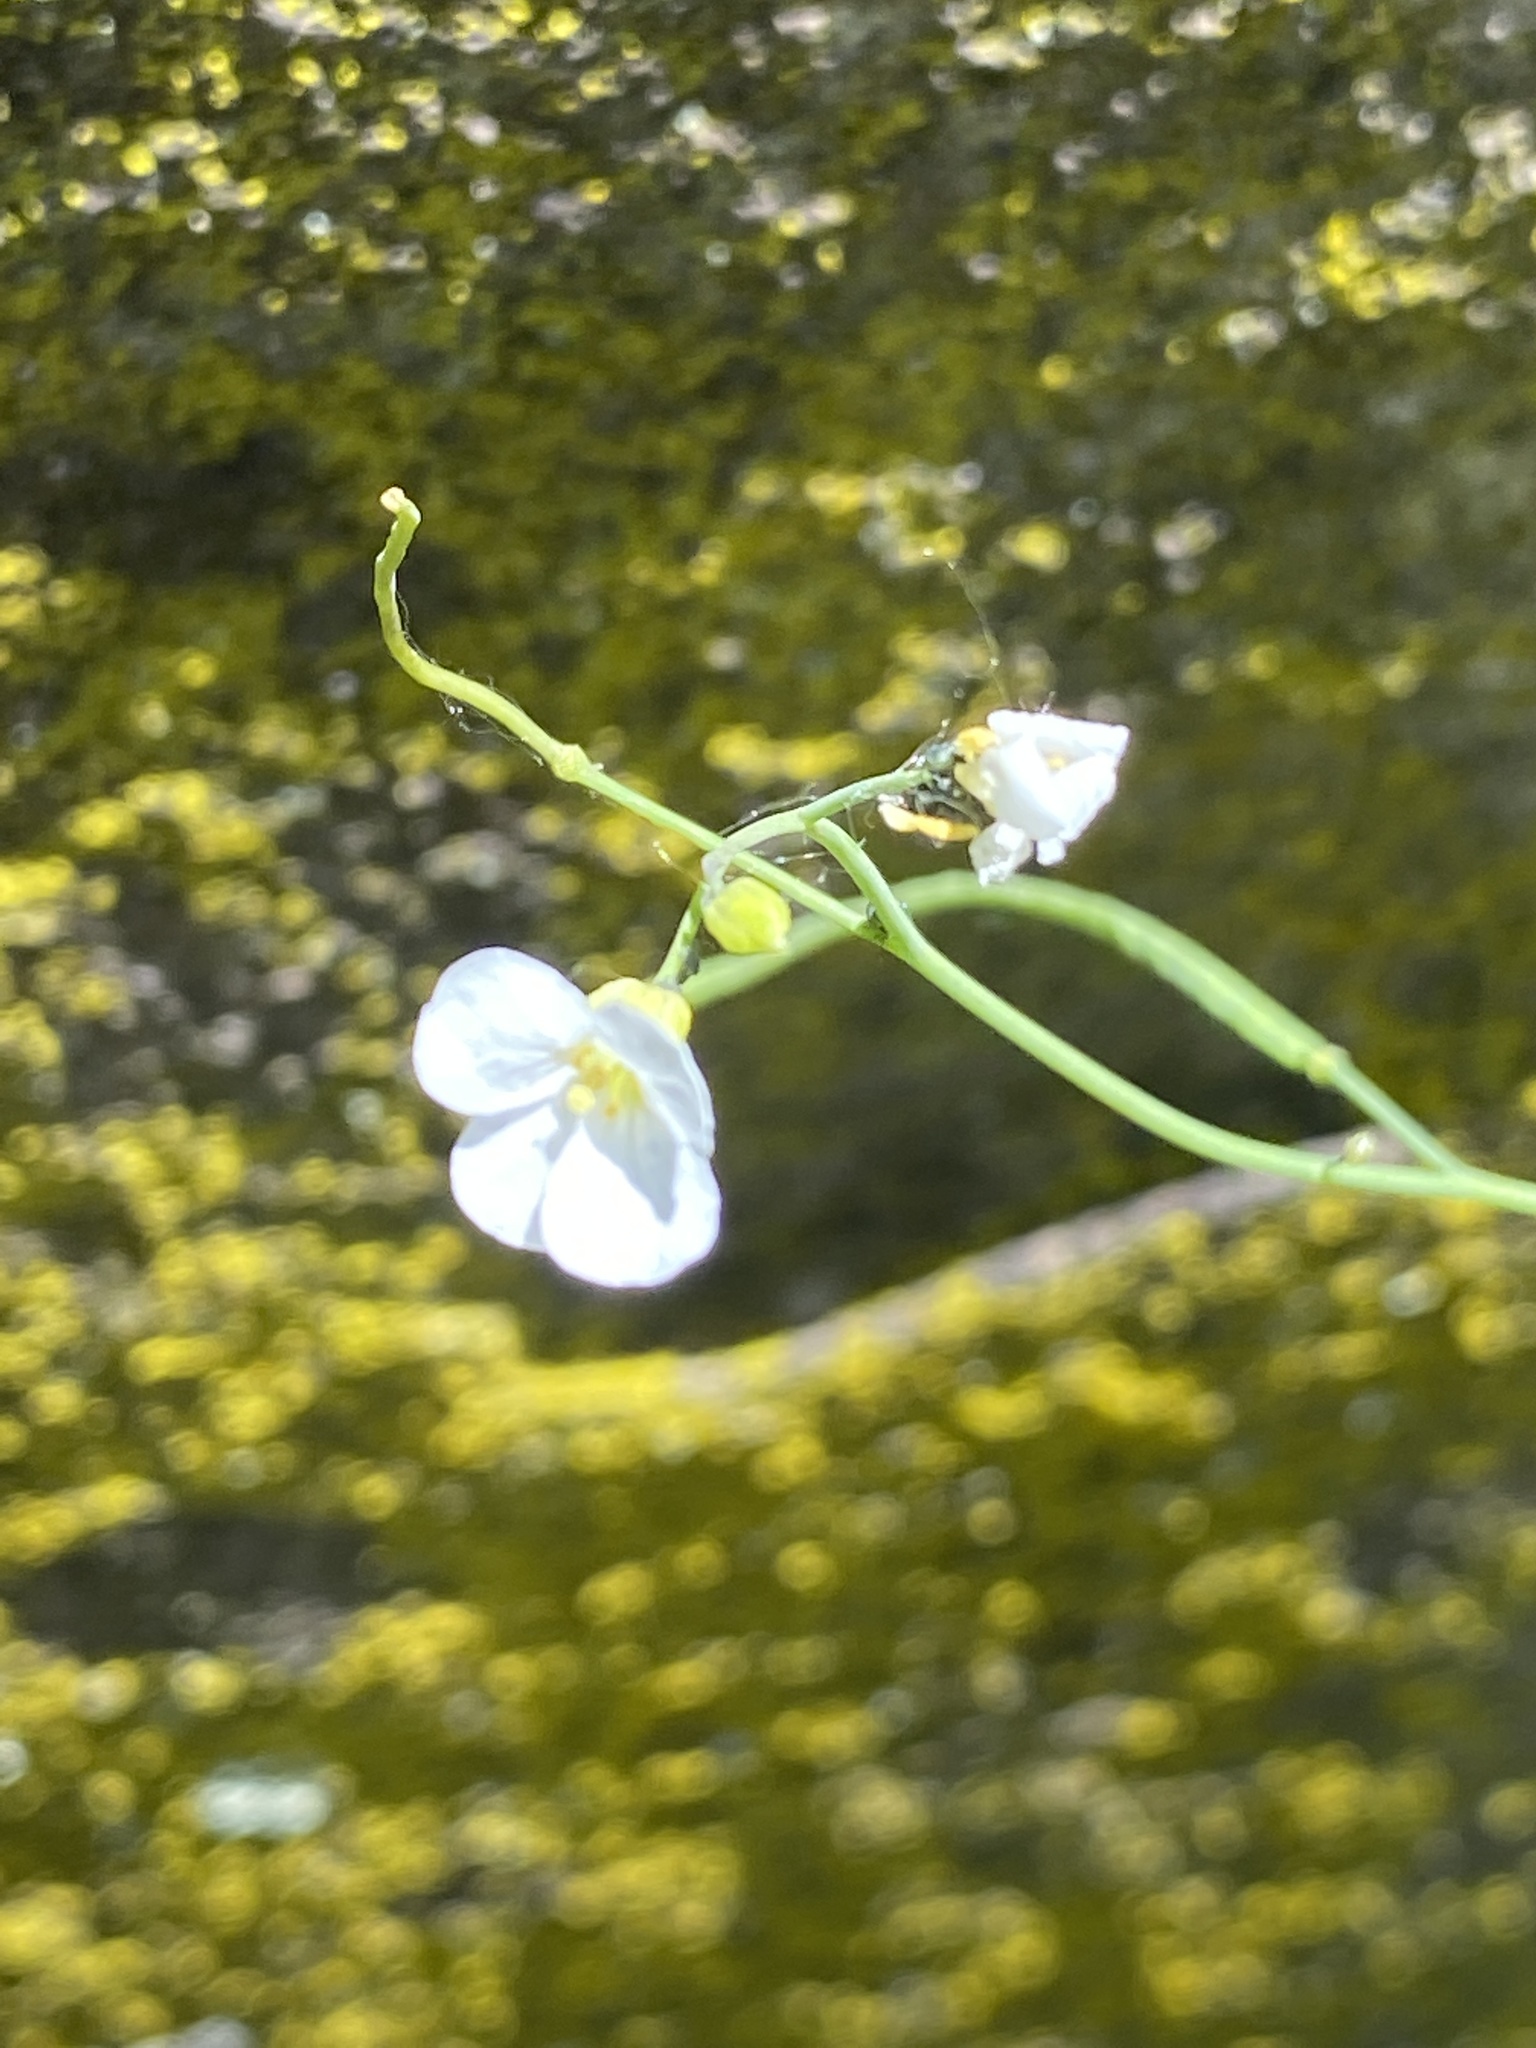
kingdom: Plantae
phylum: Tracheophyta
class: Magnoliopsida
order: Brassicales
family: Brassicaceae
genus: Arabidopsis
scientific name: Arabidopsis lyrata
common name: Lyrate rockcress
